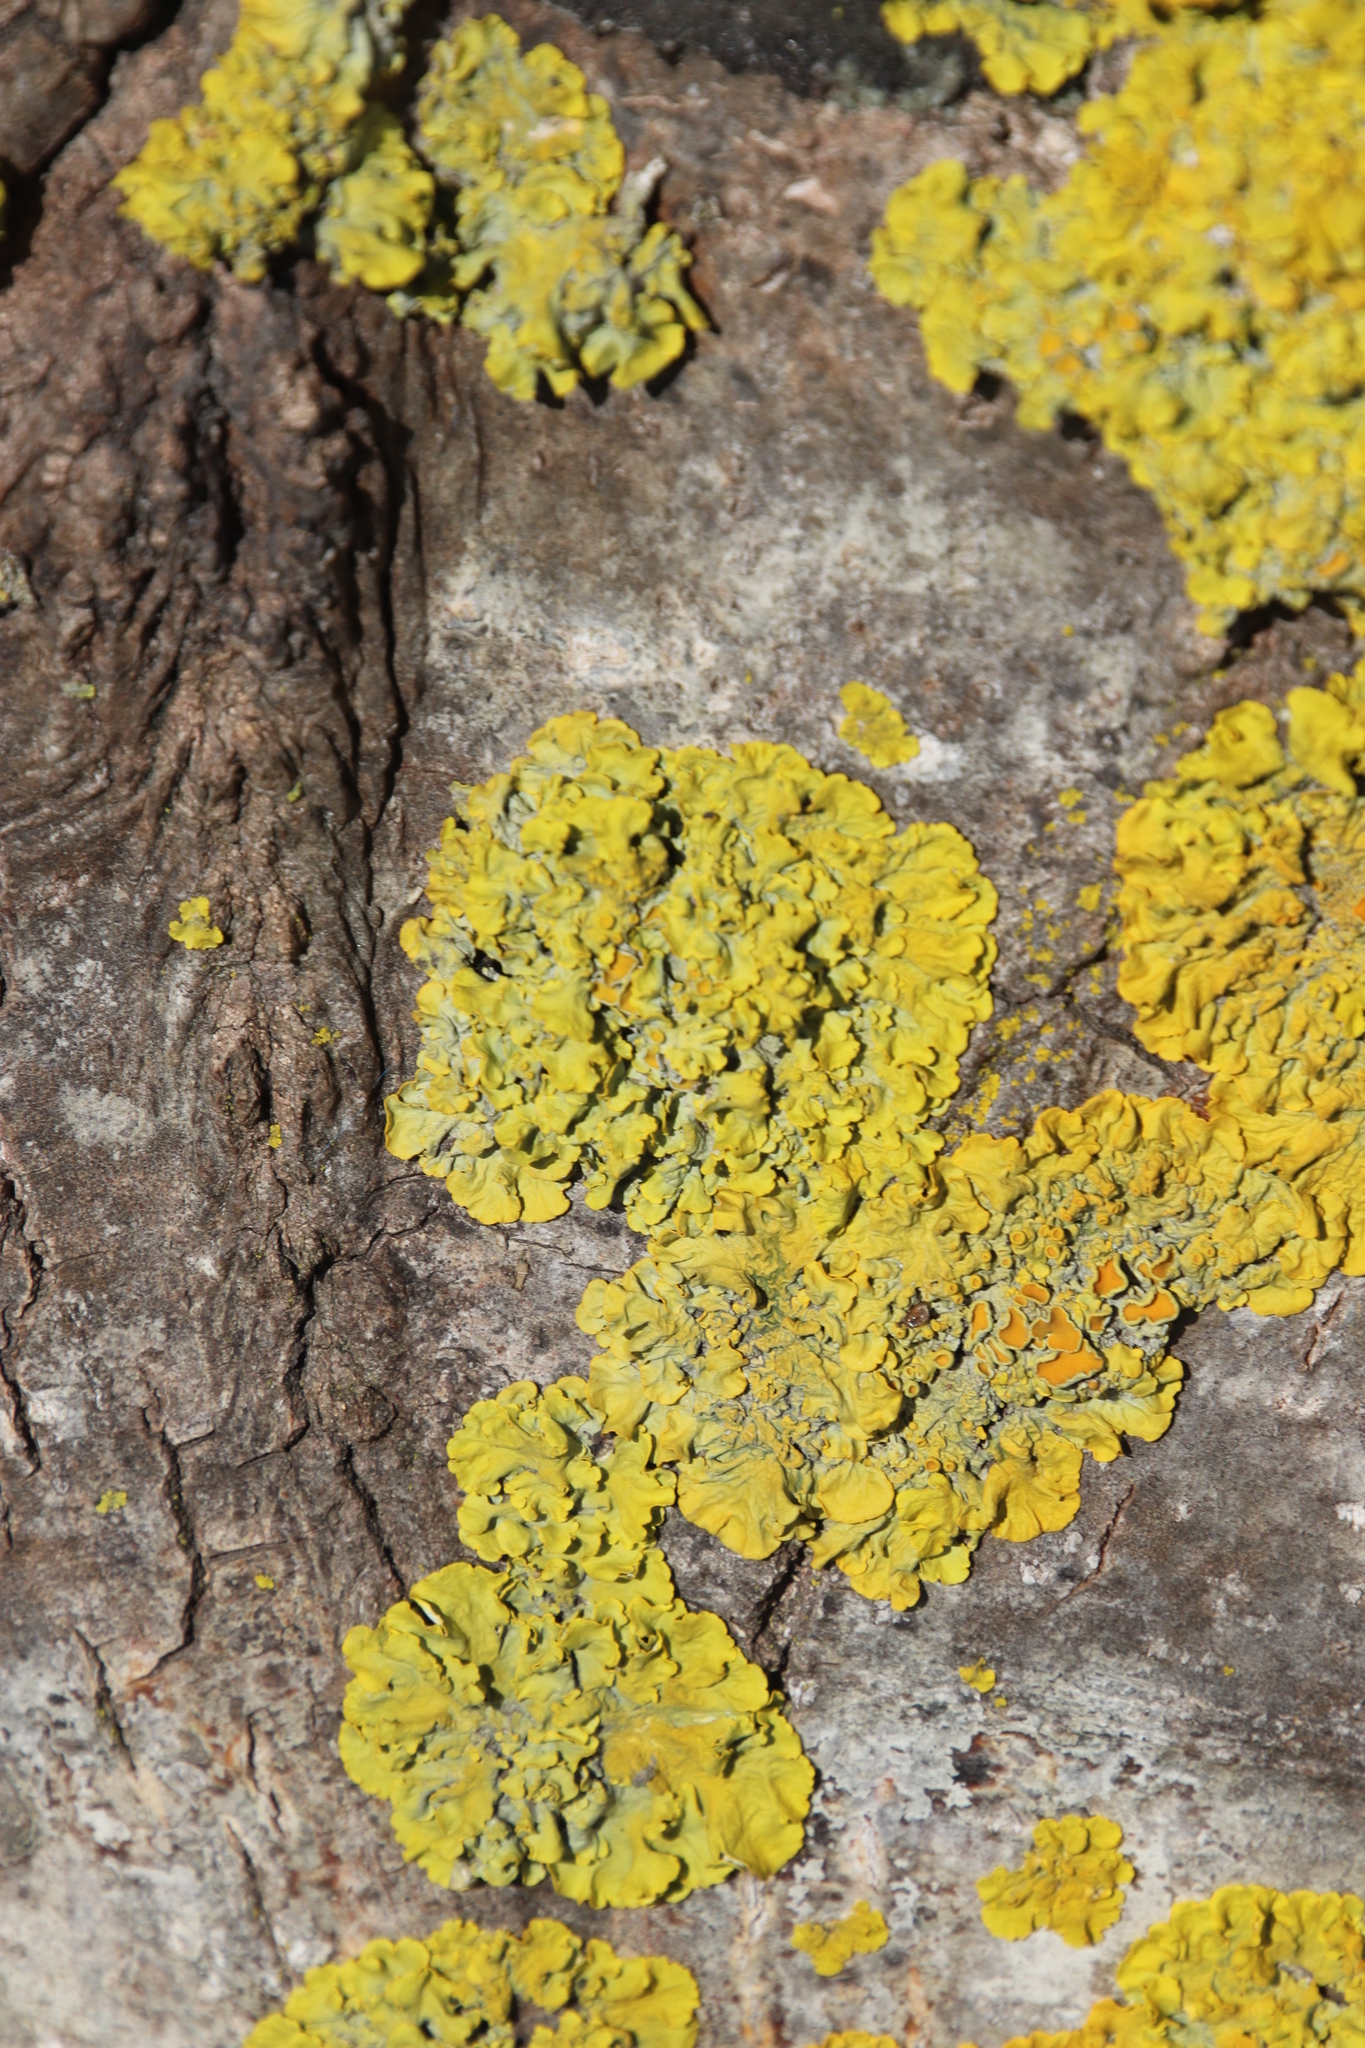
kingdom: Fungi
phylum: Ascomycota
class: Lecanoromycetes
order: Teloschistales
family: Teloschistaceae
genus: Xanthoria
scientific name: Xanthoria parietina
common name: Common orange lichen
